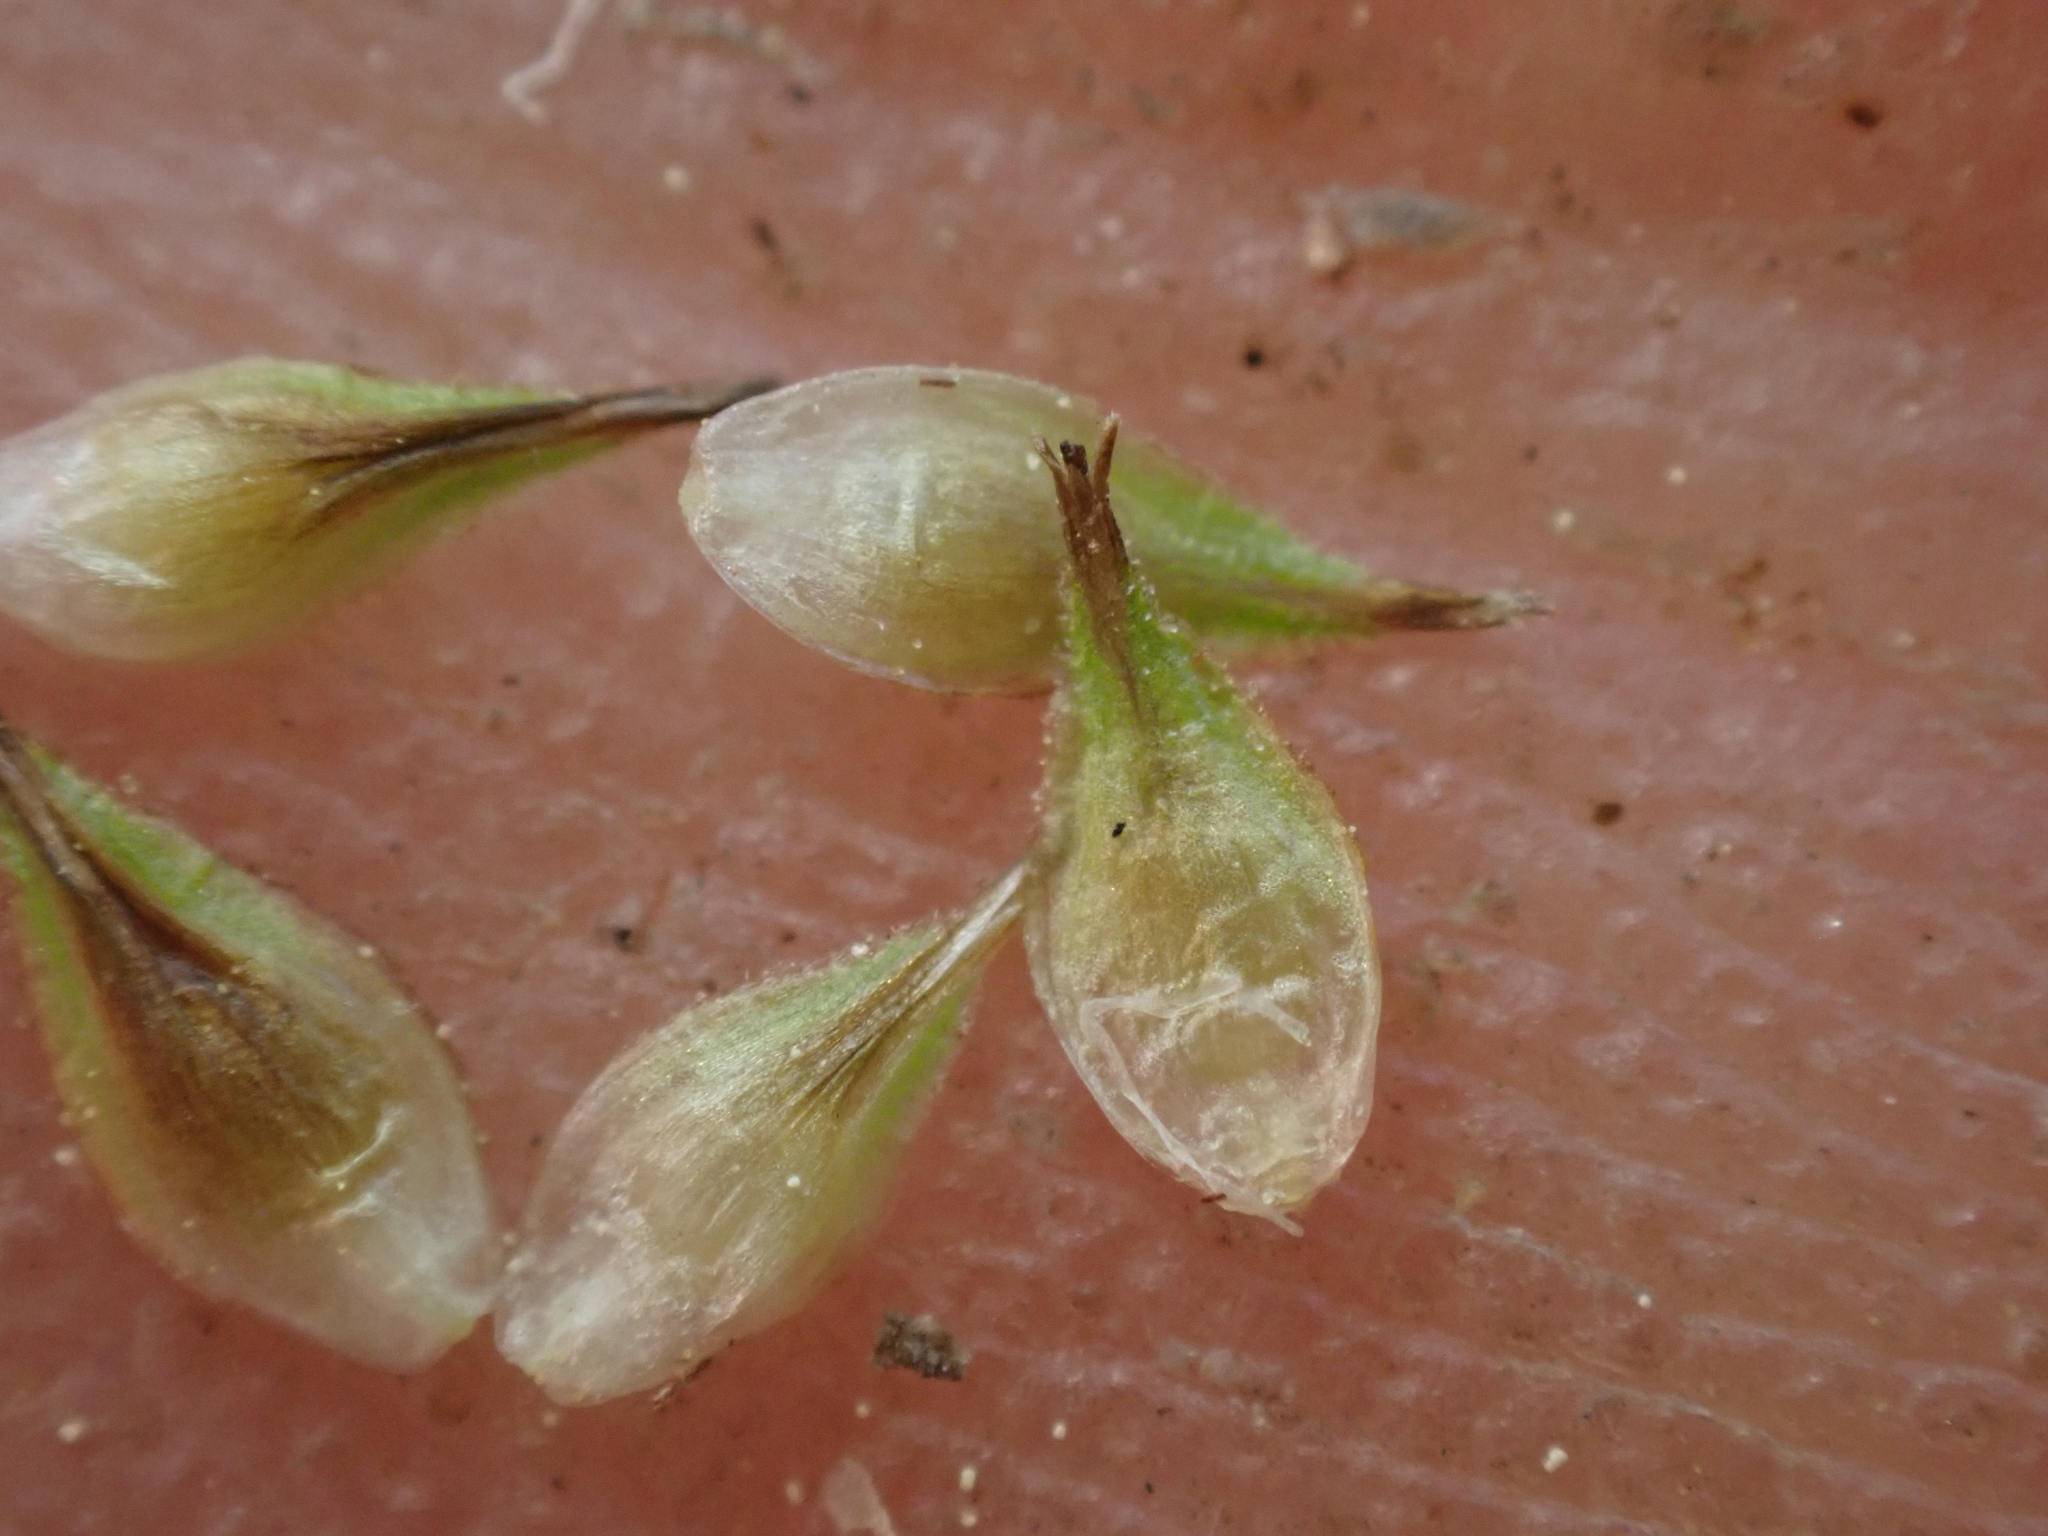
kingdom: Plantae
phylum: Tracheophyta
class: Liliopsida
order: Poales
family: Cyperaceae
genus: Carex
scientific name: Carex athrostachya
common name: Slenderbeak sedge
